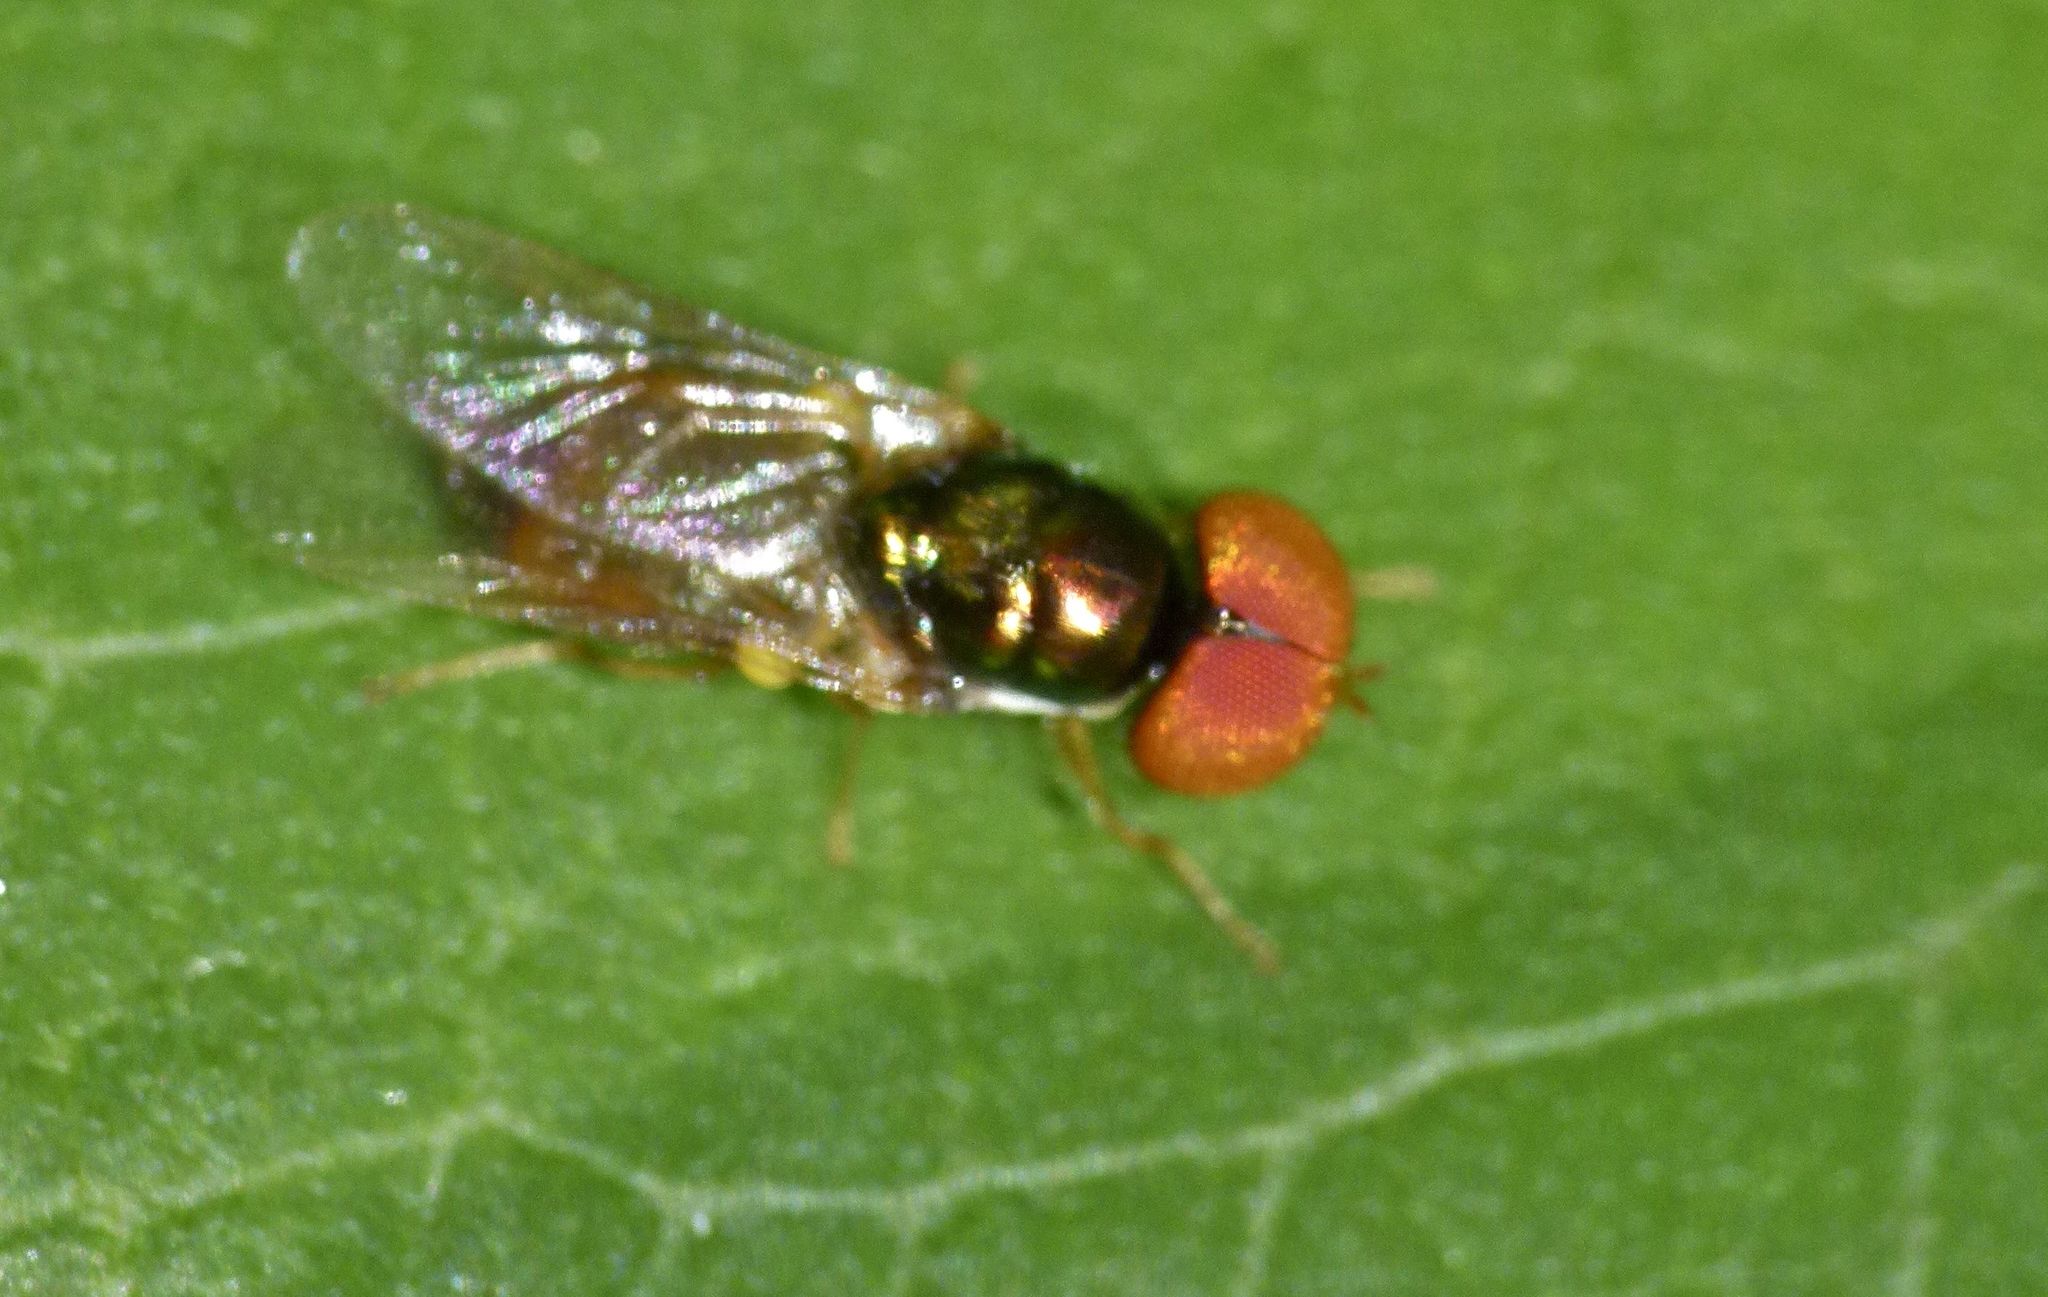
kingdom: Animalia
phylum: Arthropoda
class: Insecta
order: Diptera
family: Stratiomyidae
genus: Microchrysa
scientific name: Microchrysa flaviventris
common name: Soldier fly
